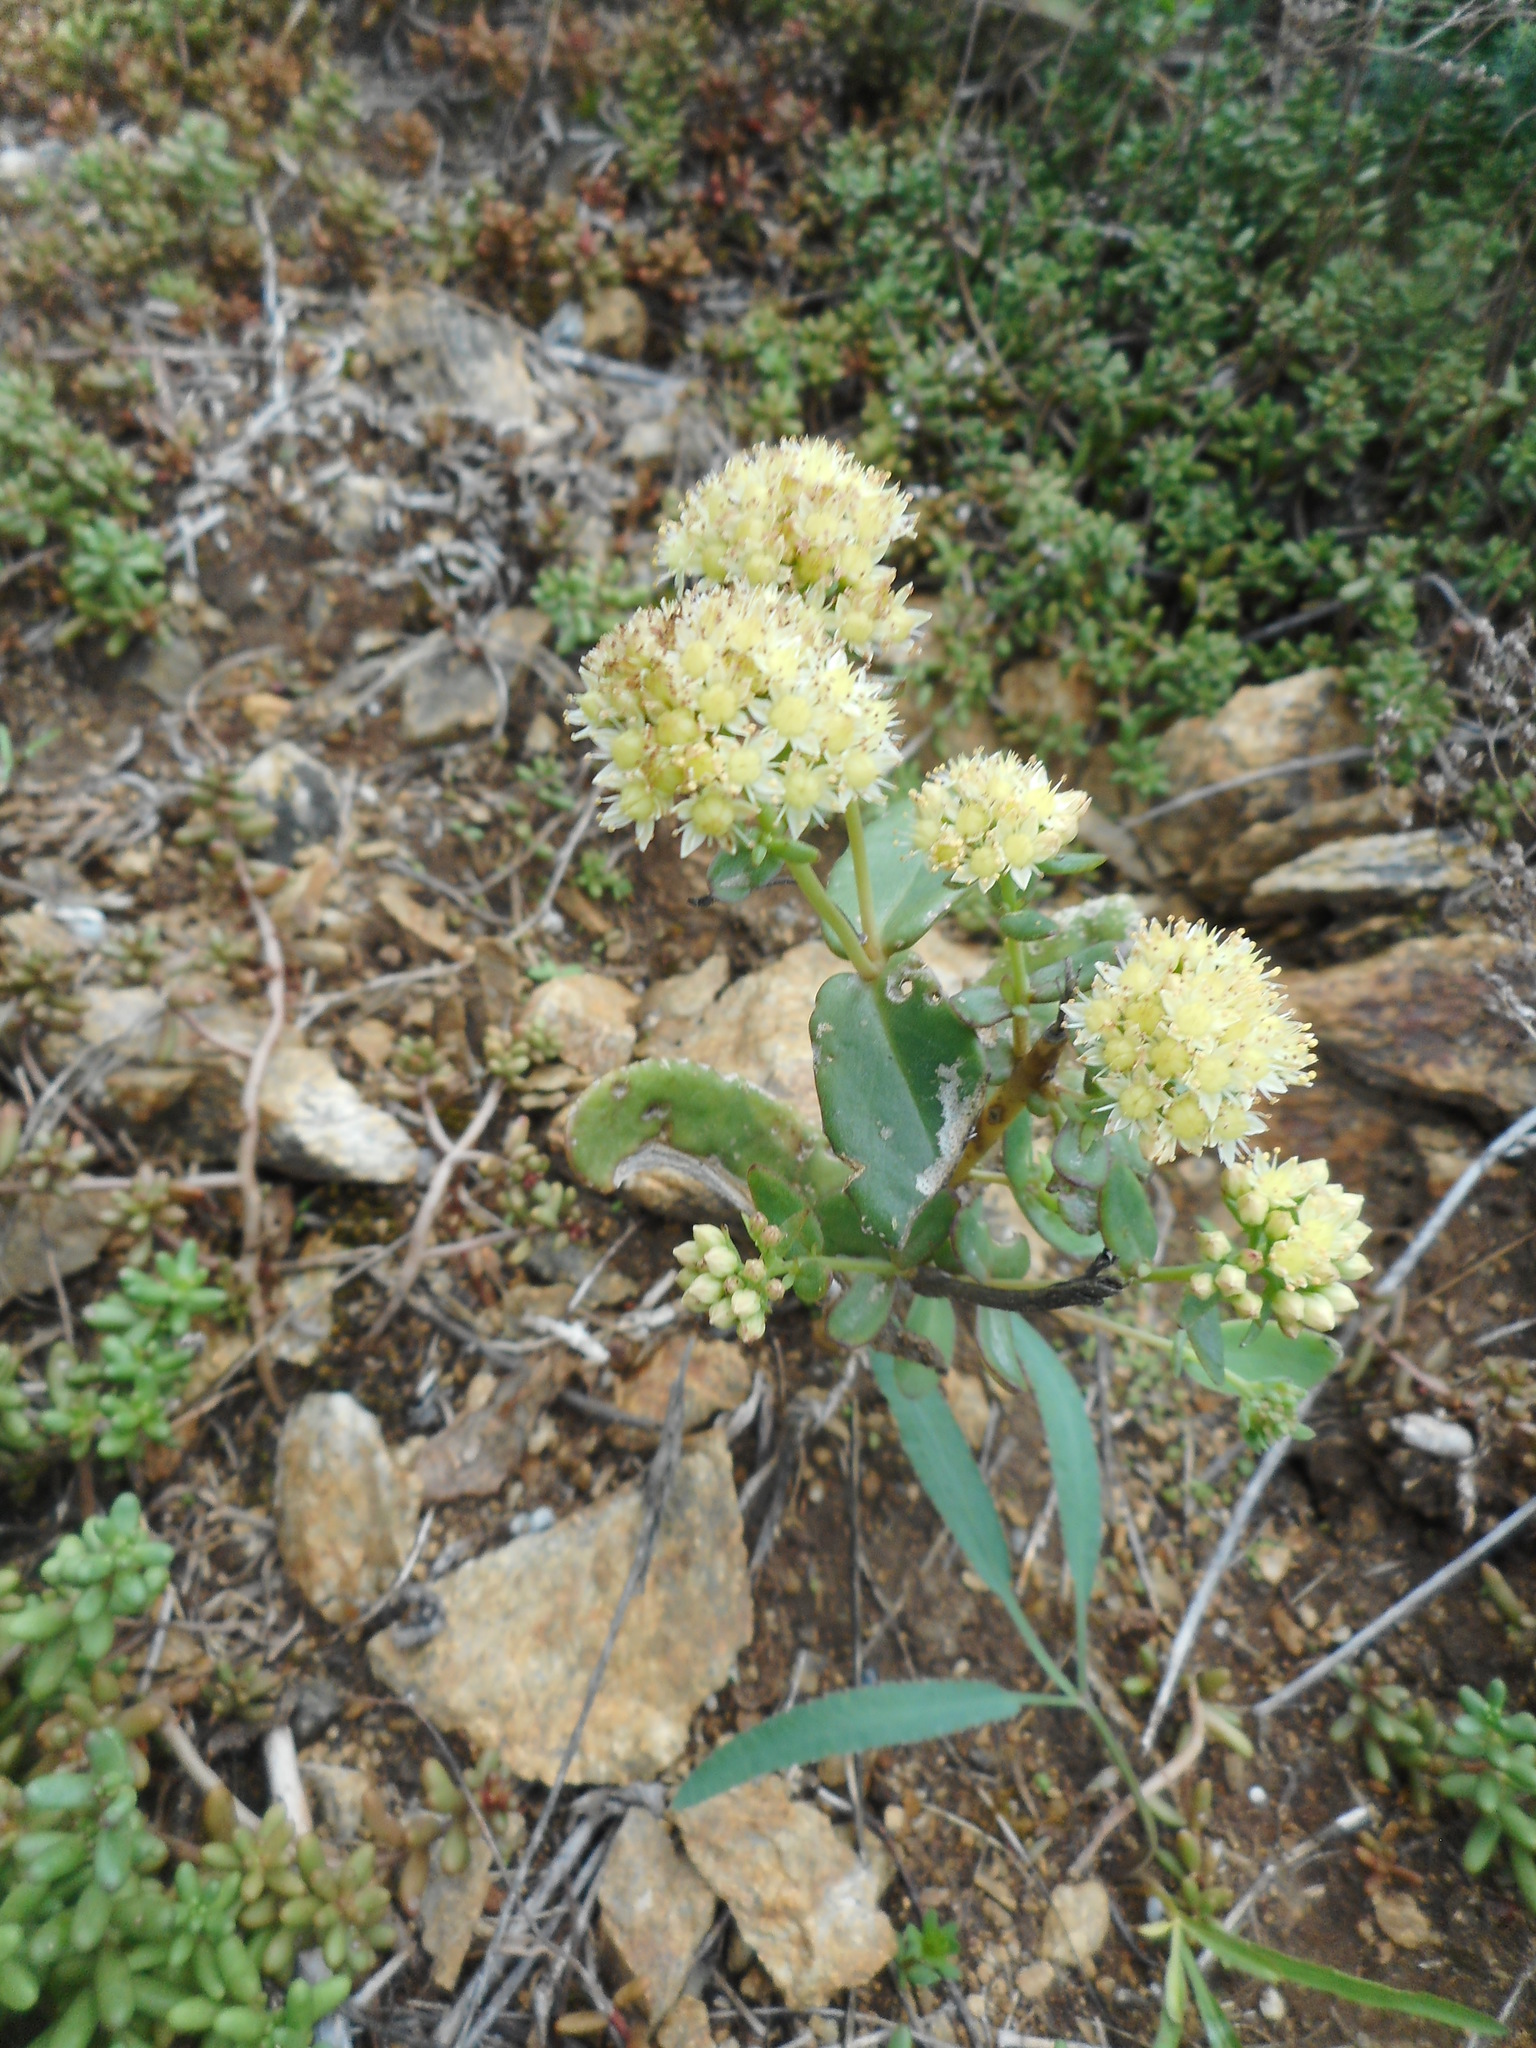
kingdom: Plantae
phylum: Tracheophyta
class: Magnoliopsida
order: Saxifragales
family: Crassulaceae
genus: Hylotelephium
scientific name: Hylotelephium maximum
